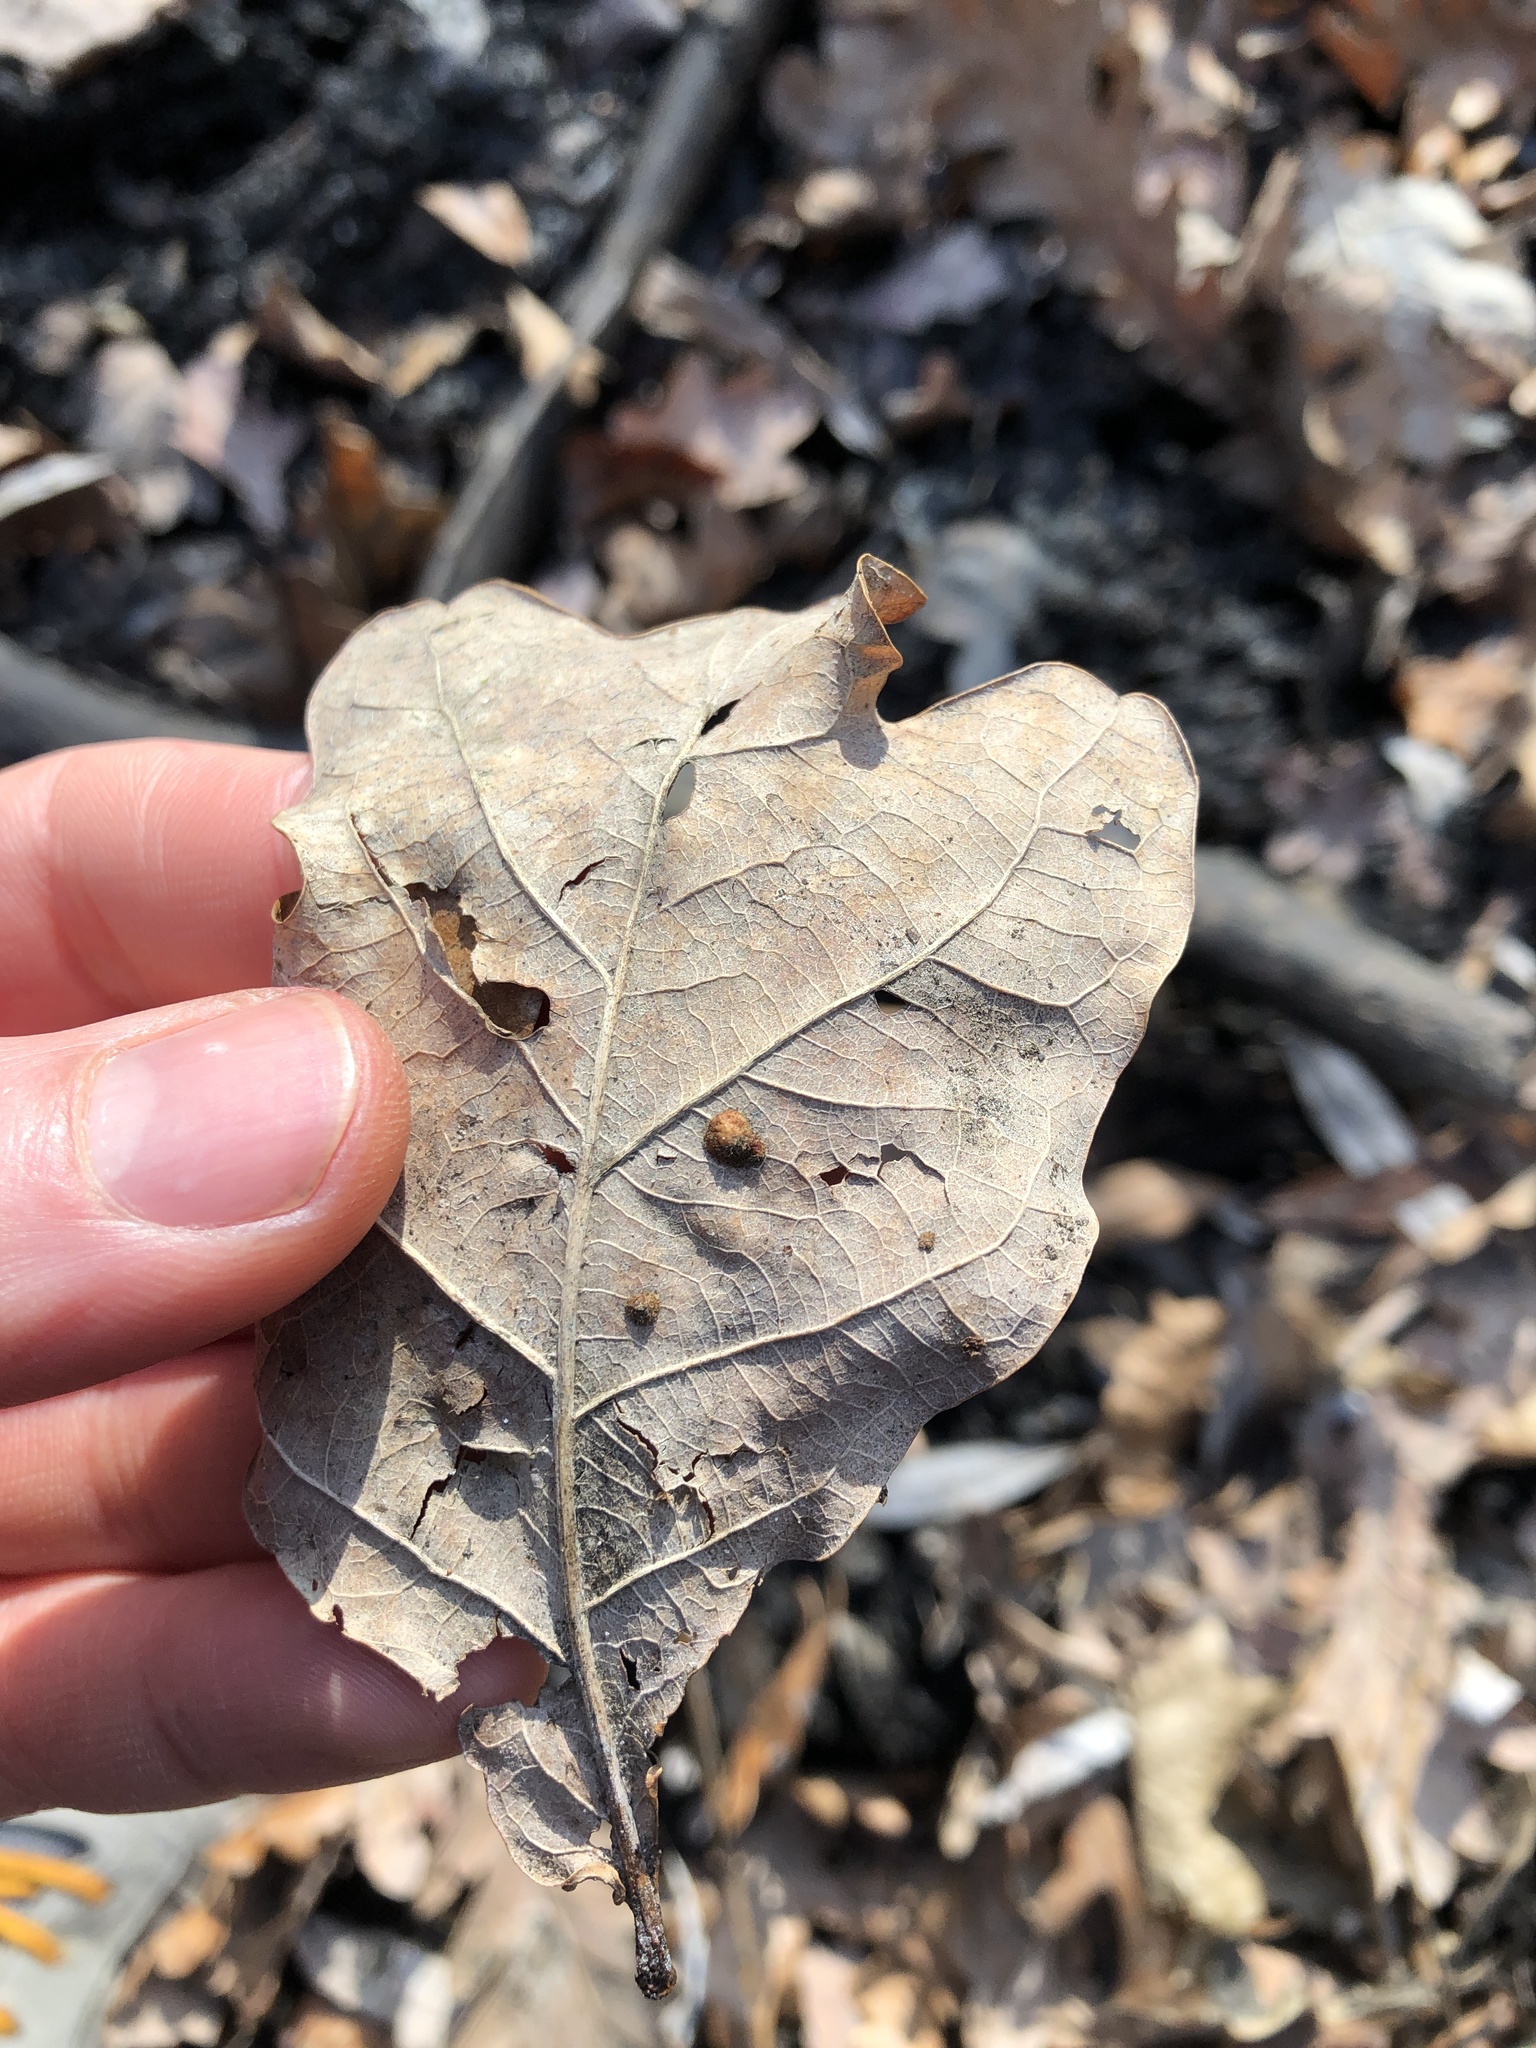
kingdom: Animalia
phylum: Arthropoda
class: Insecta
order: Hymenoptera
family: Cynipidae
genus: Neuroterus
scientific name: Neuroterus quercusbaccarum
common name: Common spangle gall
